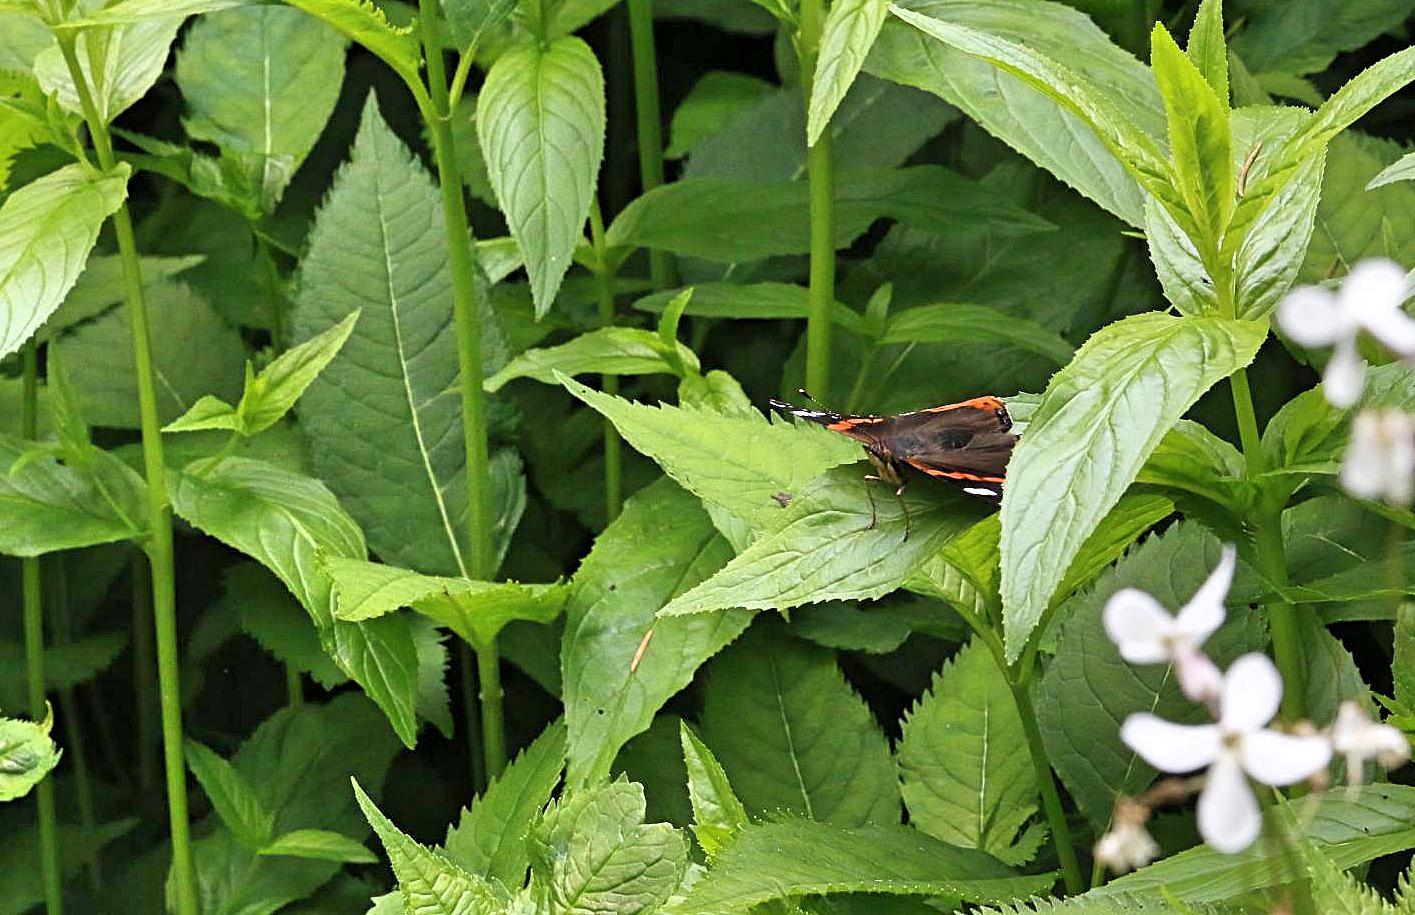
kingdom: Animalia
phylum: Arthropoda
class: Insecta
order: Lepidoptera
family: Nymphalidae
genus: Vanessa
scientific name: Vanessa atalanta
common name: Red admiral
